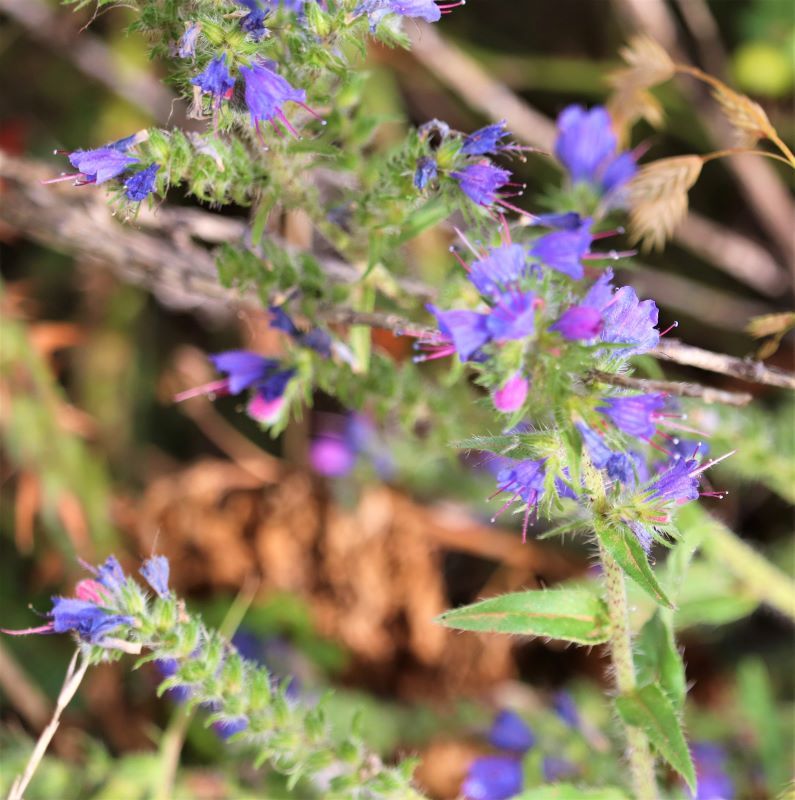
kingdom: Plantae
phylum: Tracheophyta
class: Magnoliopsida
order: Boraginales
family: Boraginaceae
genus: Echium
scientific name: Echium vulgare
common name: Common viper's bugloss
